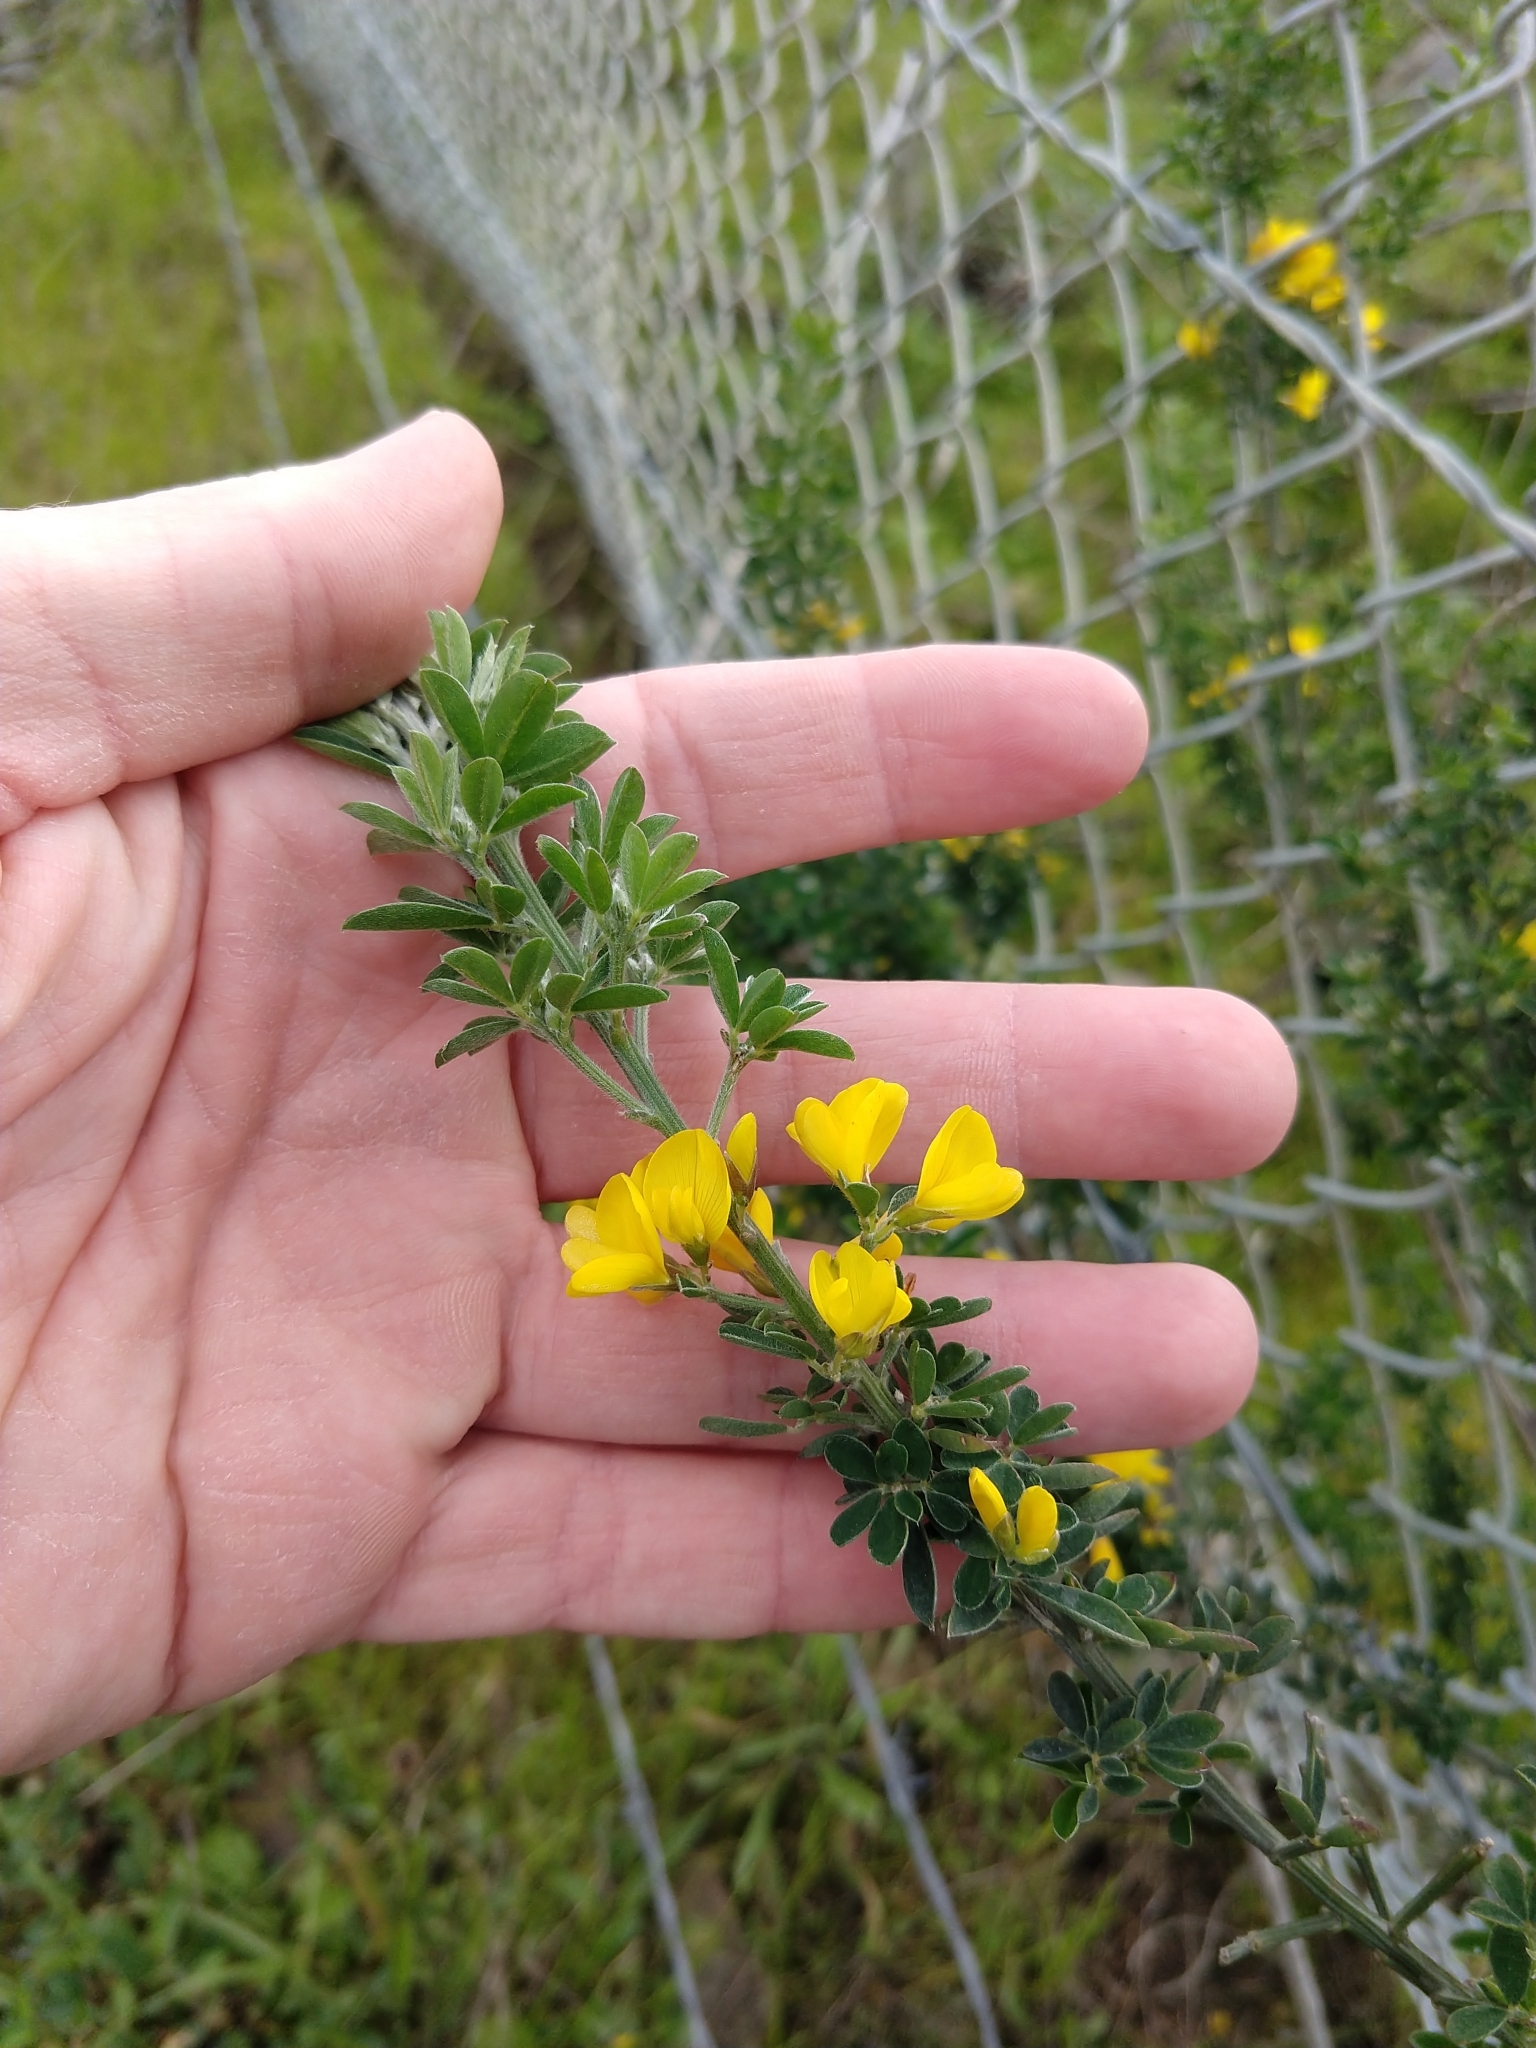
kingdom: Plantae
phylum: Tracheophyta
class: Magnoliopsida
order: Fabales
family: Fabaceae
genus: Genista
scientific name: Genista monspessulana
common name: Montpellier broom
